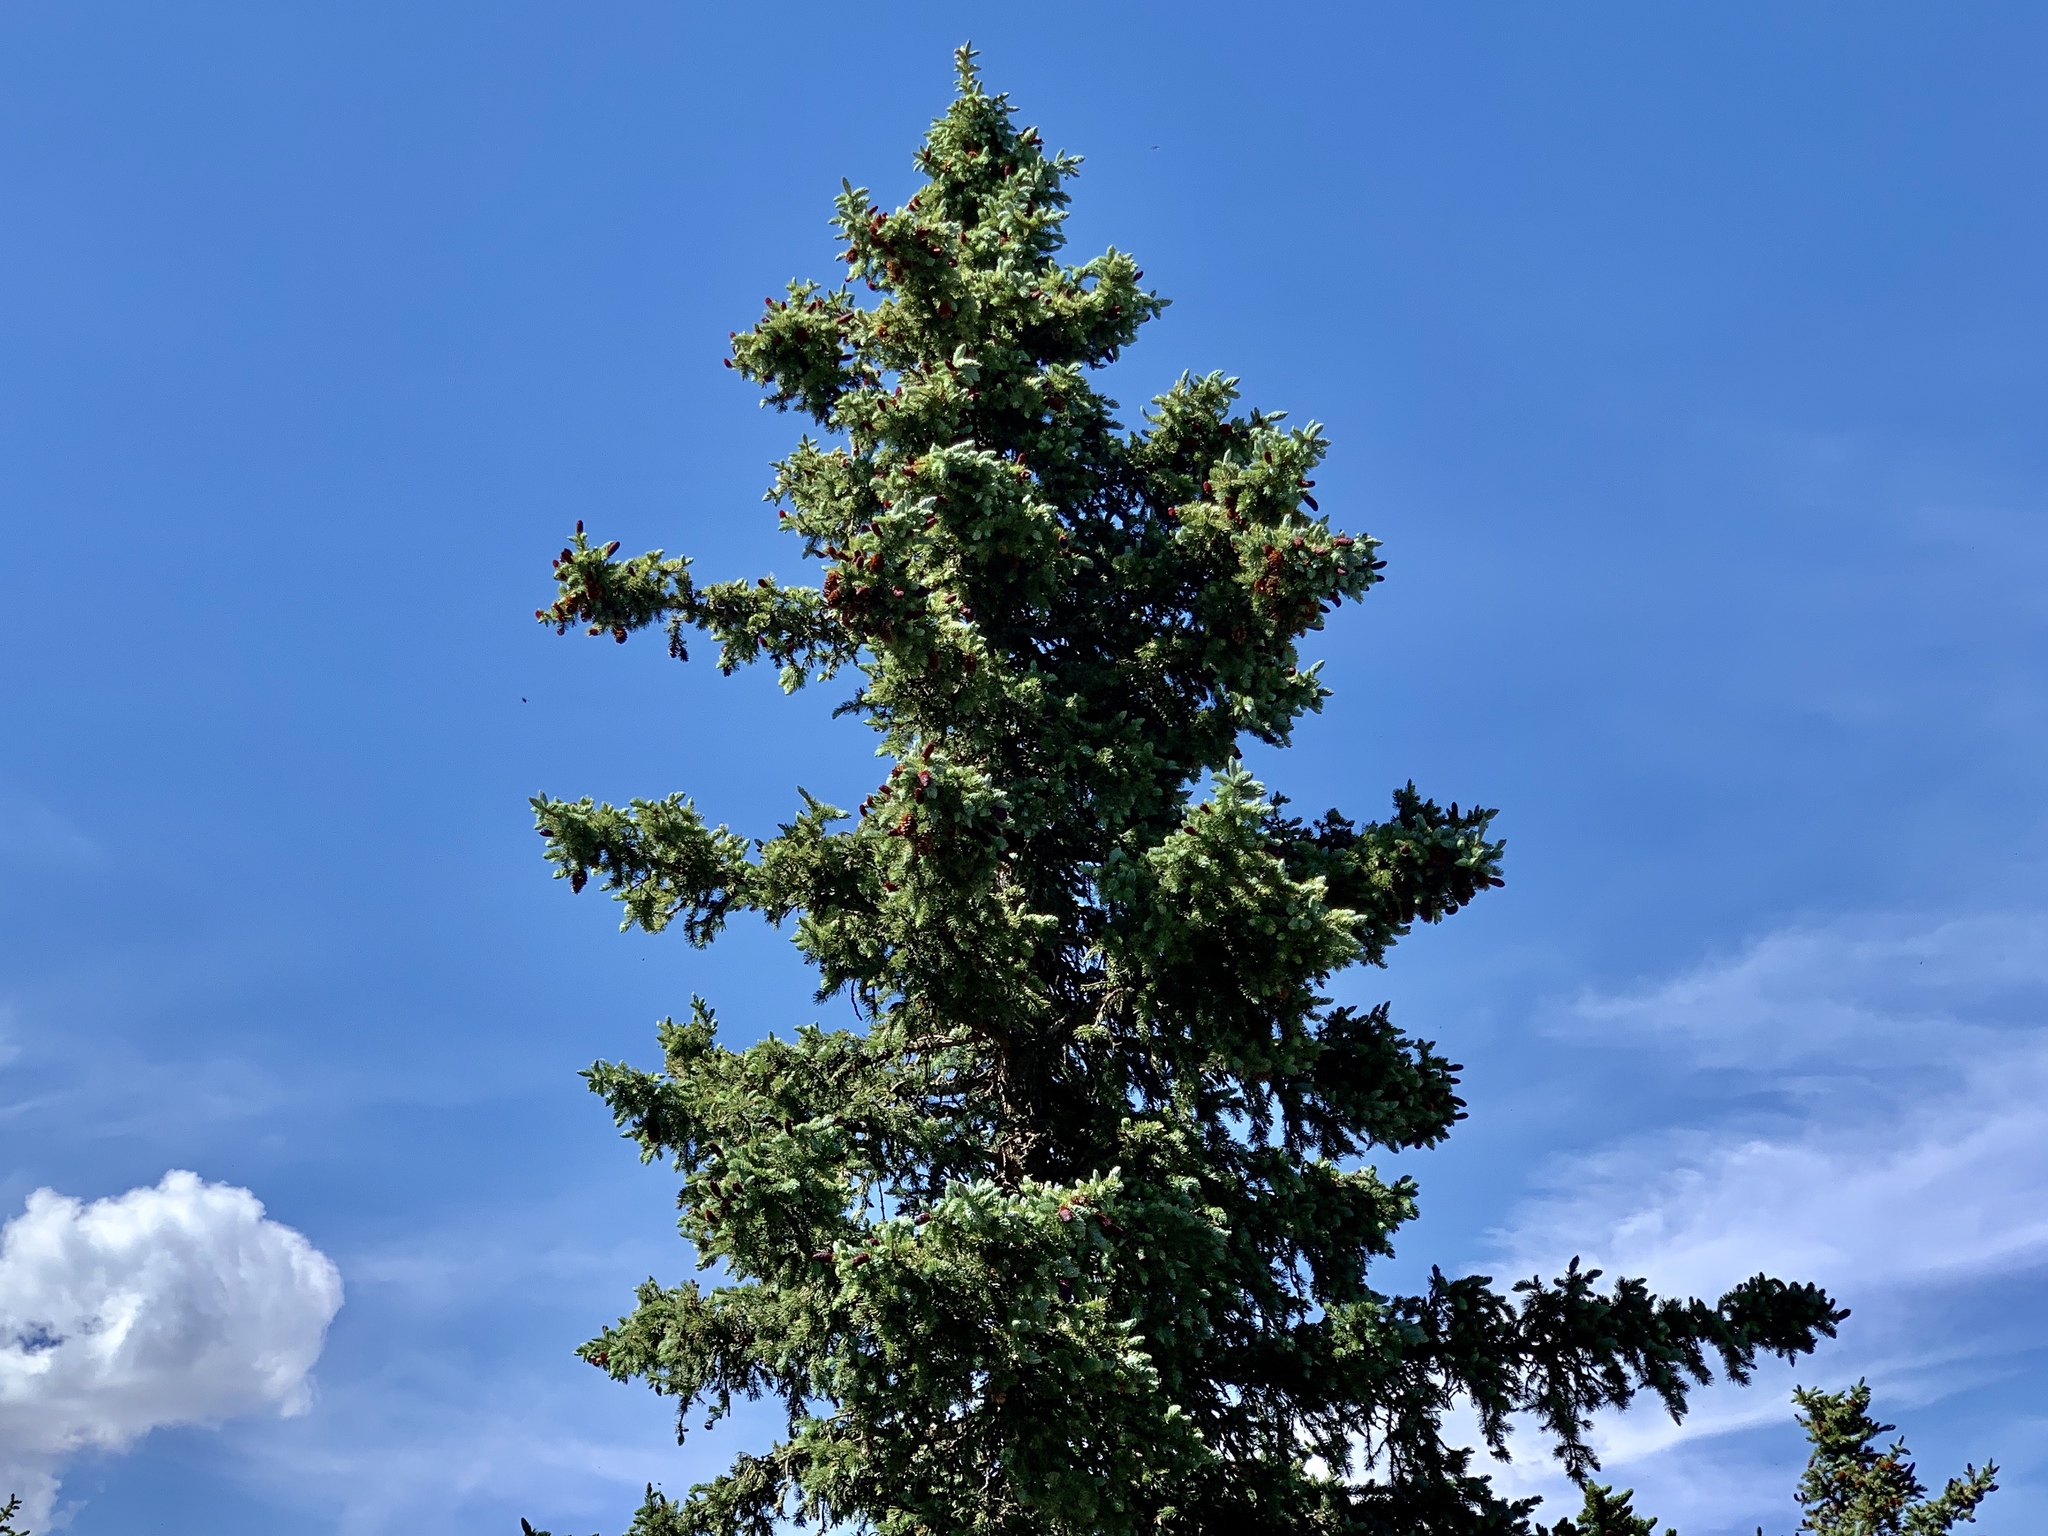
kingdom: Plantae
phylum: Tracheophyta
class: Pinopsida
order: Pinales
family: Pinaceae
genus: Picea
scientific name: Picea engelmannii
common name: Engelmann spruce
